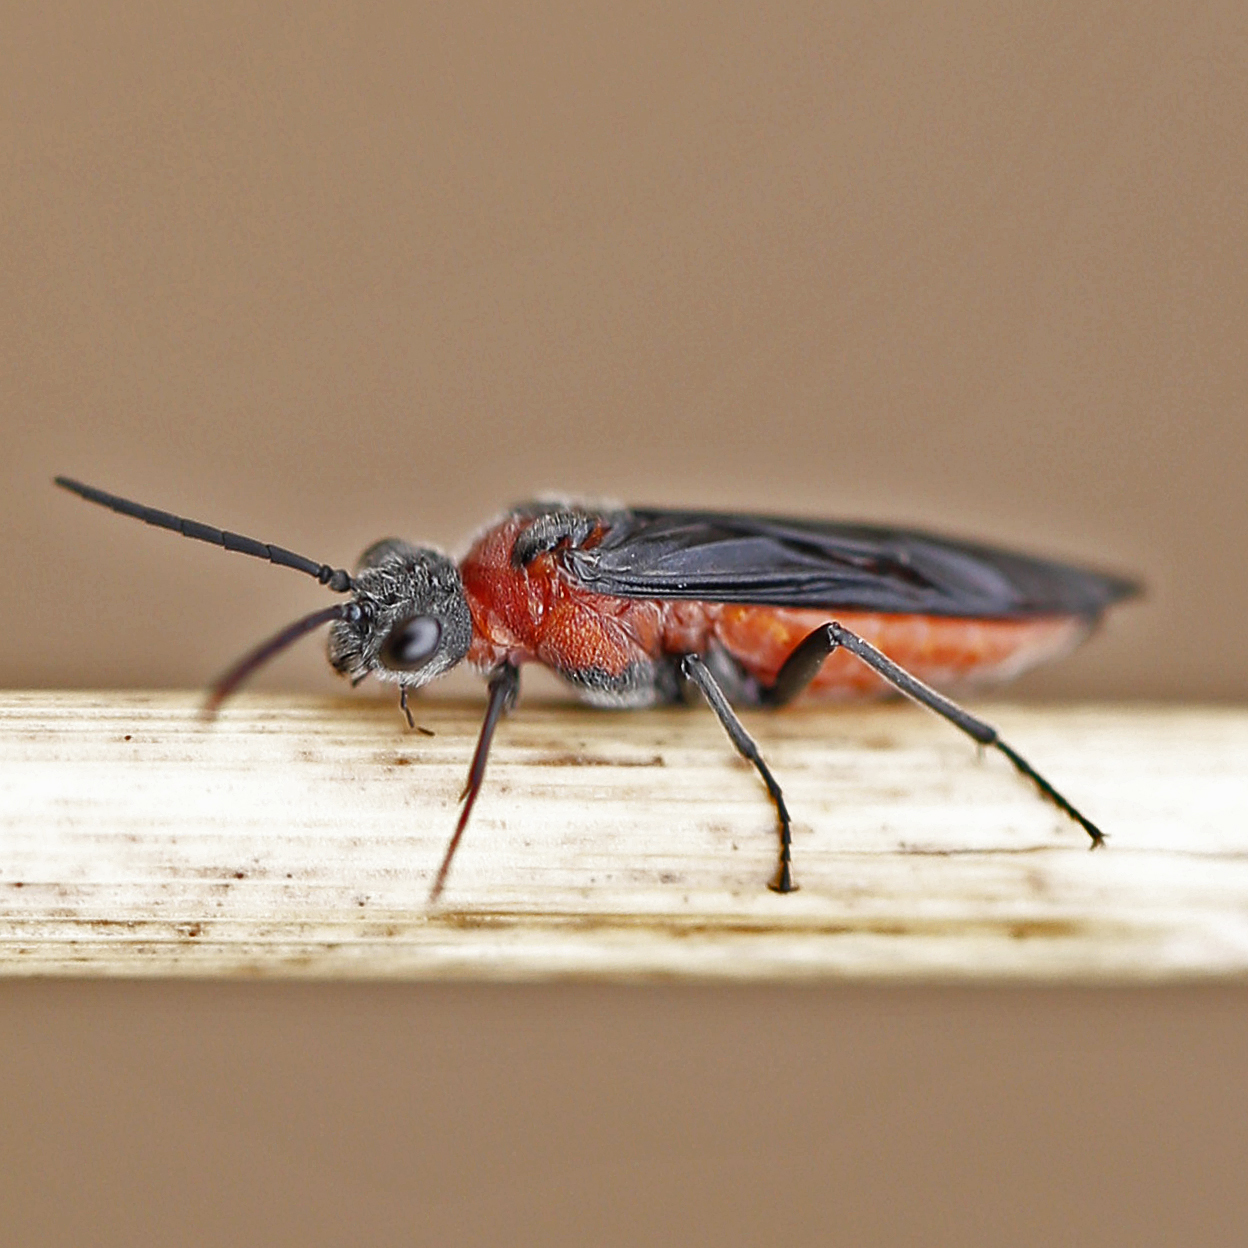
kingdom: Animalia
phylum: Arthropoda
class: Insecta
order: Hymenoptera
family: Tenthredinidae
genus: Dolerus
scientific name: Dolerus
